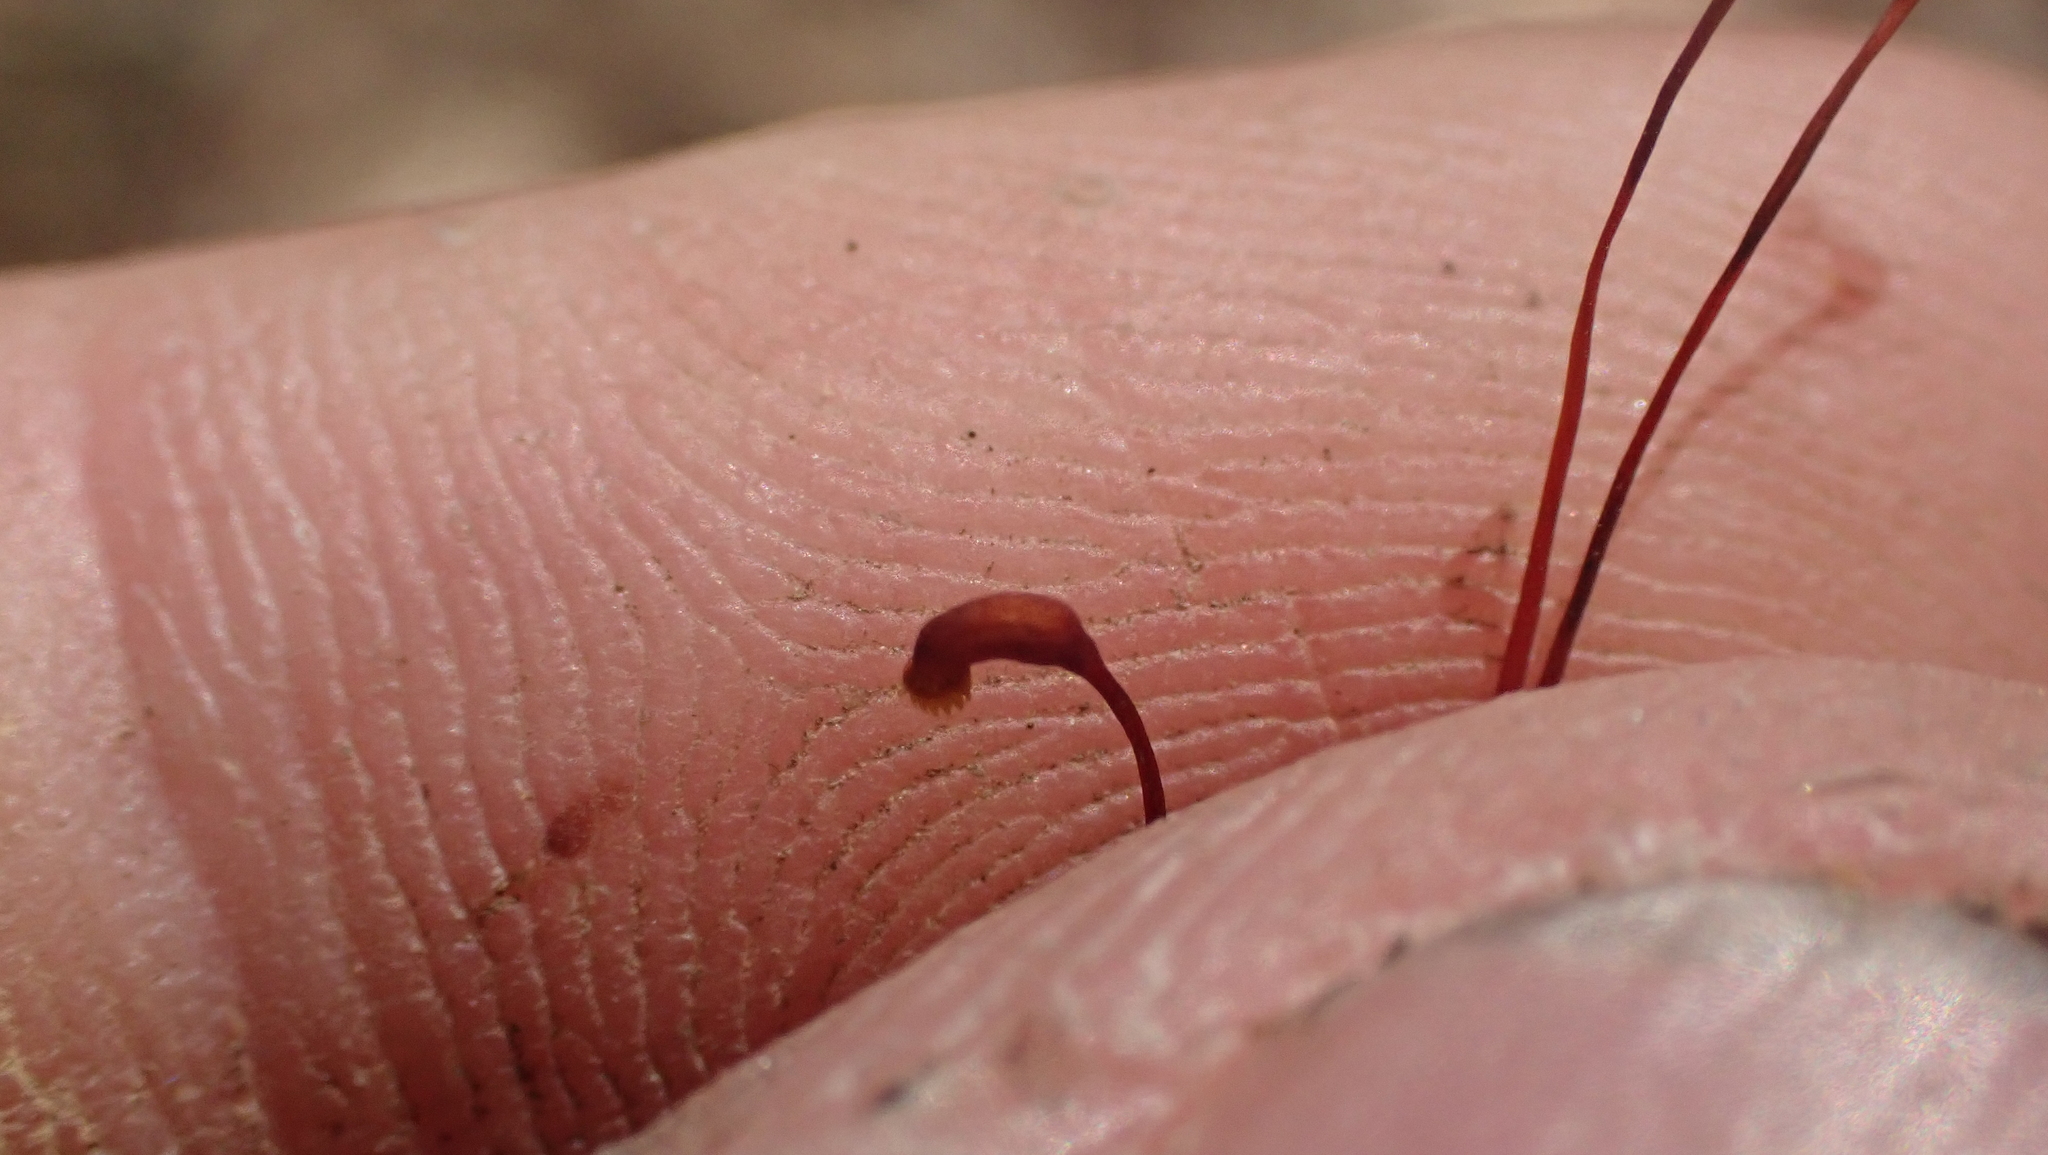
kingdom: Plantae
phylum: Bryophyta
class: Bryopsida
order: Hypnales
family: Brachytheciaceae
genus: Bryoandersonia
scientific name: Bryoandersonia illecebra
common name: Spoon-leaved moss
